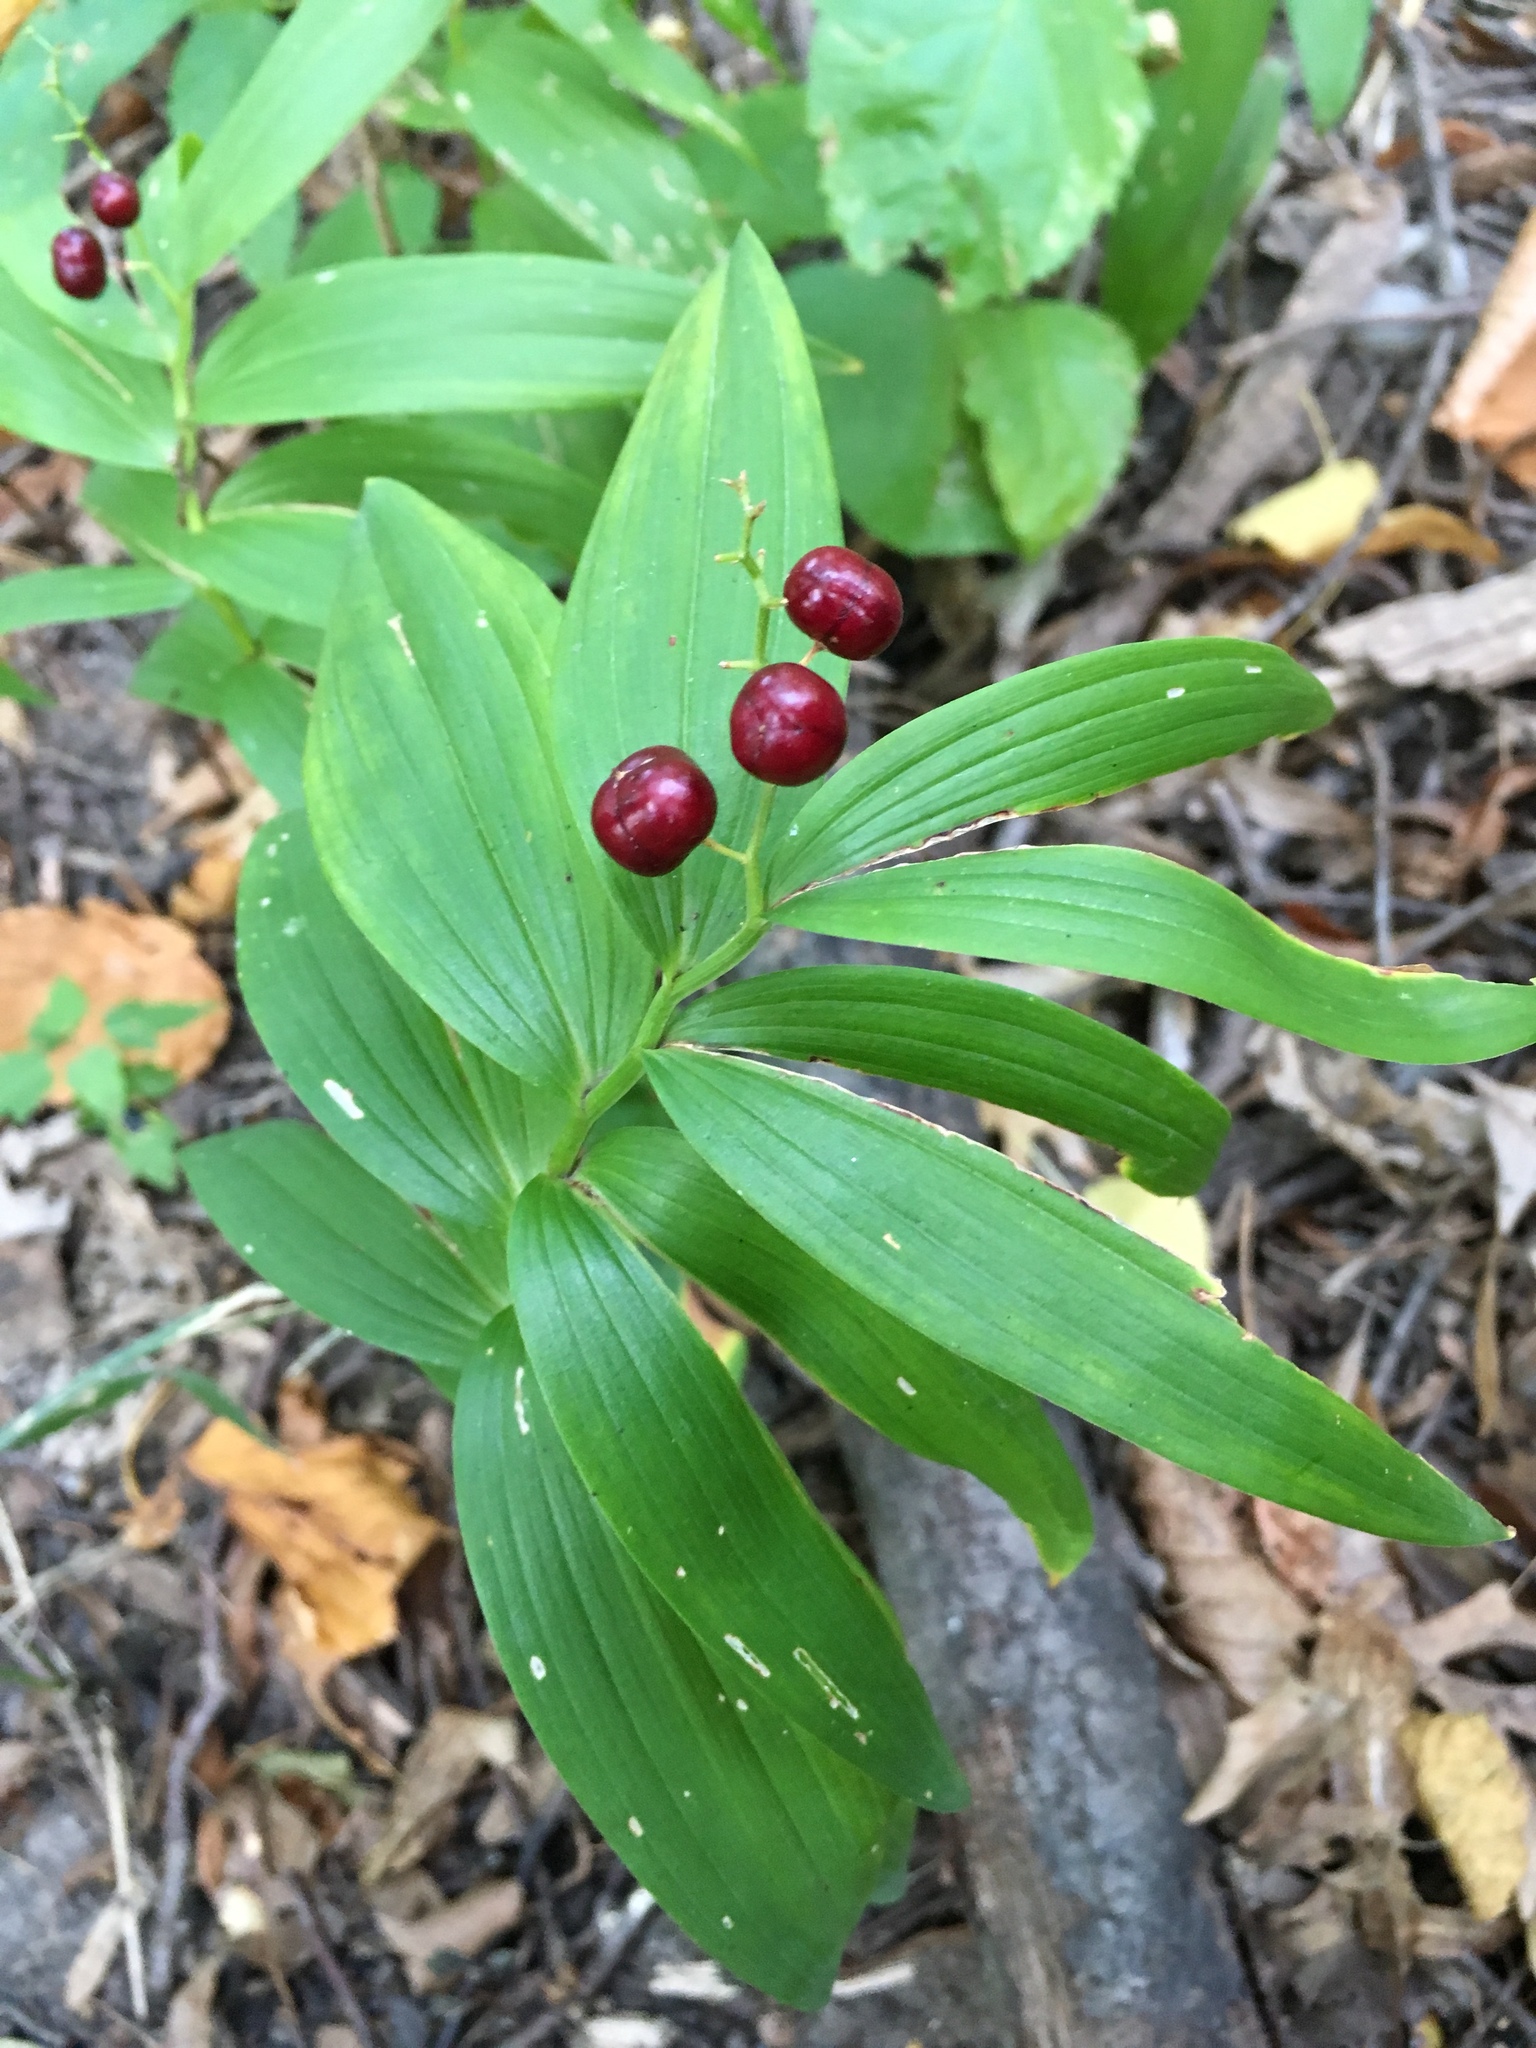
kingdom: Plantae
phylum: Tracheophyta
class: Liliopsida
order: Asparagales
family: Asparagaceae
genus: Maianthemum
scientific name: Maianthemum stellatum
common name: Little false solomon's seal
